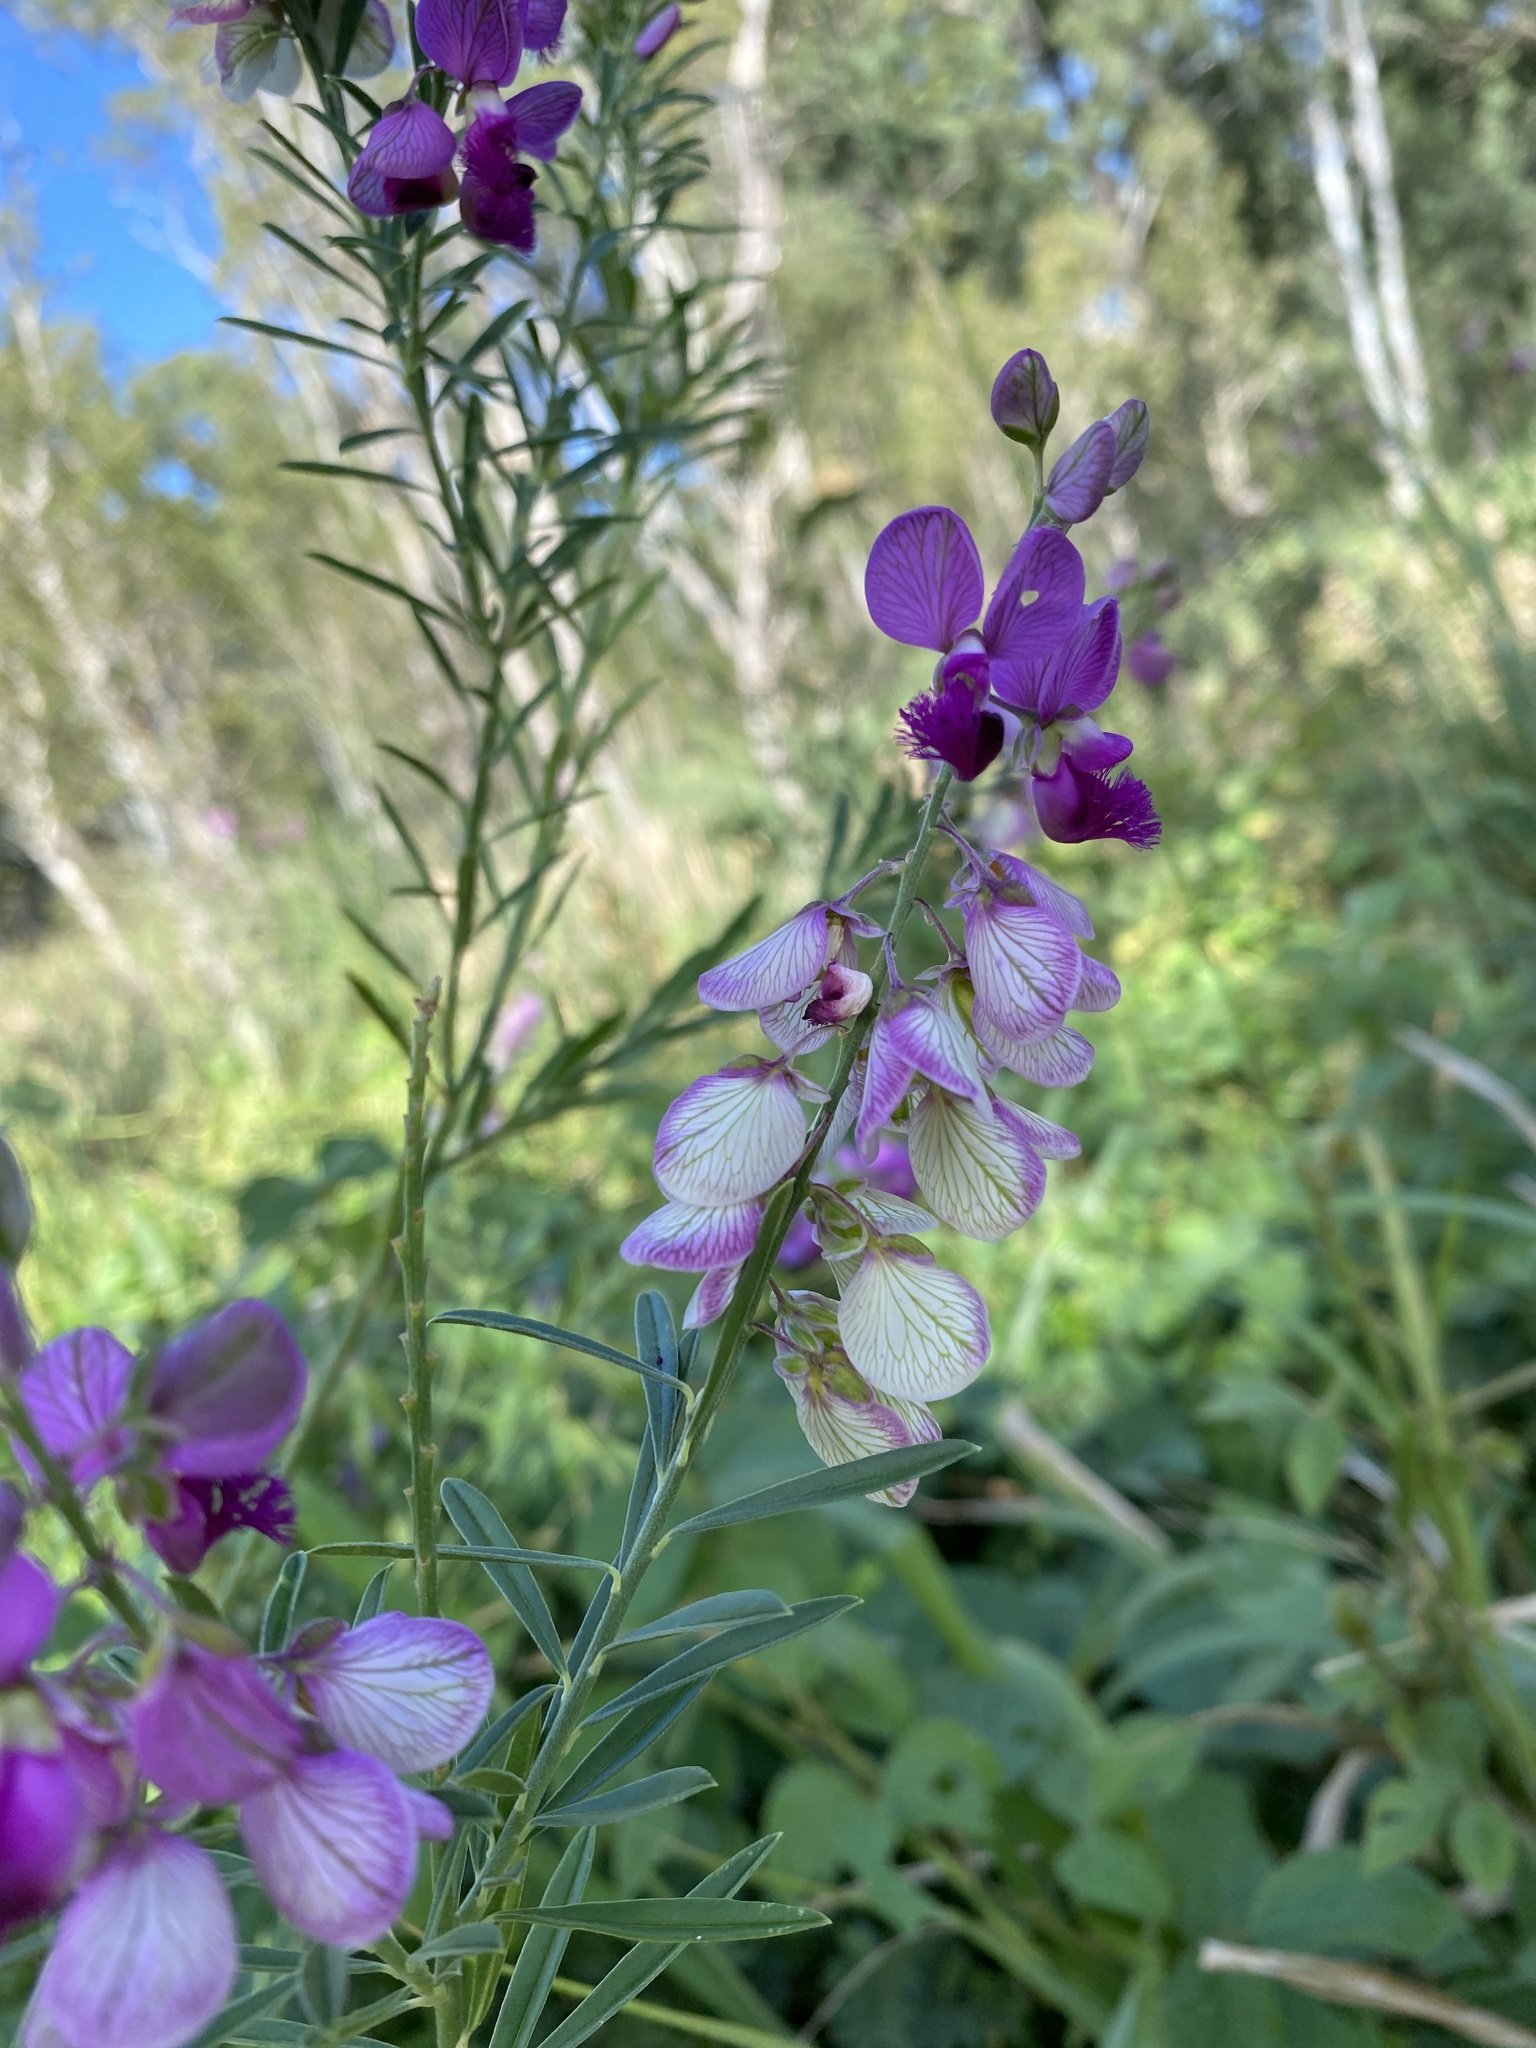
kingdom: Plantae
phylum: Tracheophyta
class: Magnoliopsida
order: Fabales
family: Polygalaceae
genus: Polygala
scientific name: Polygala virgata
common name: Milkwort
